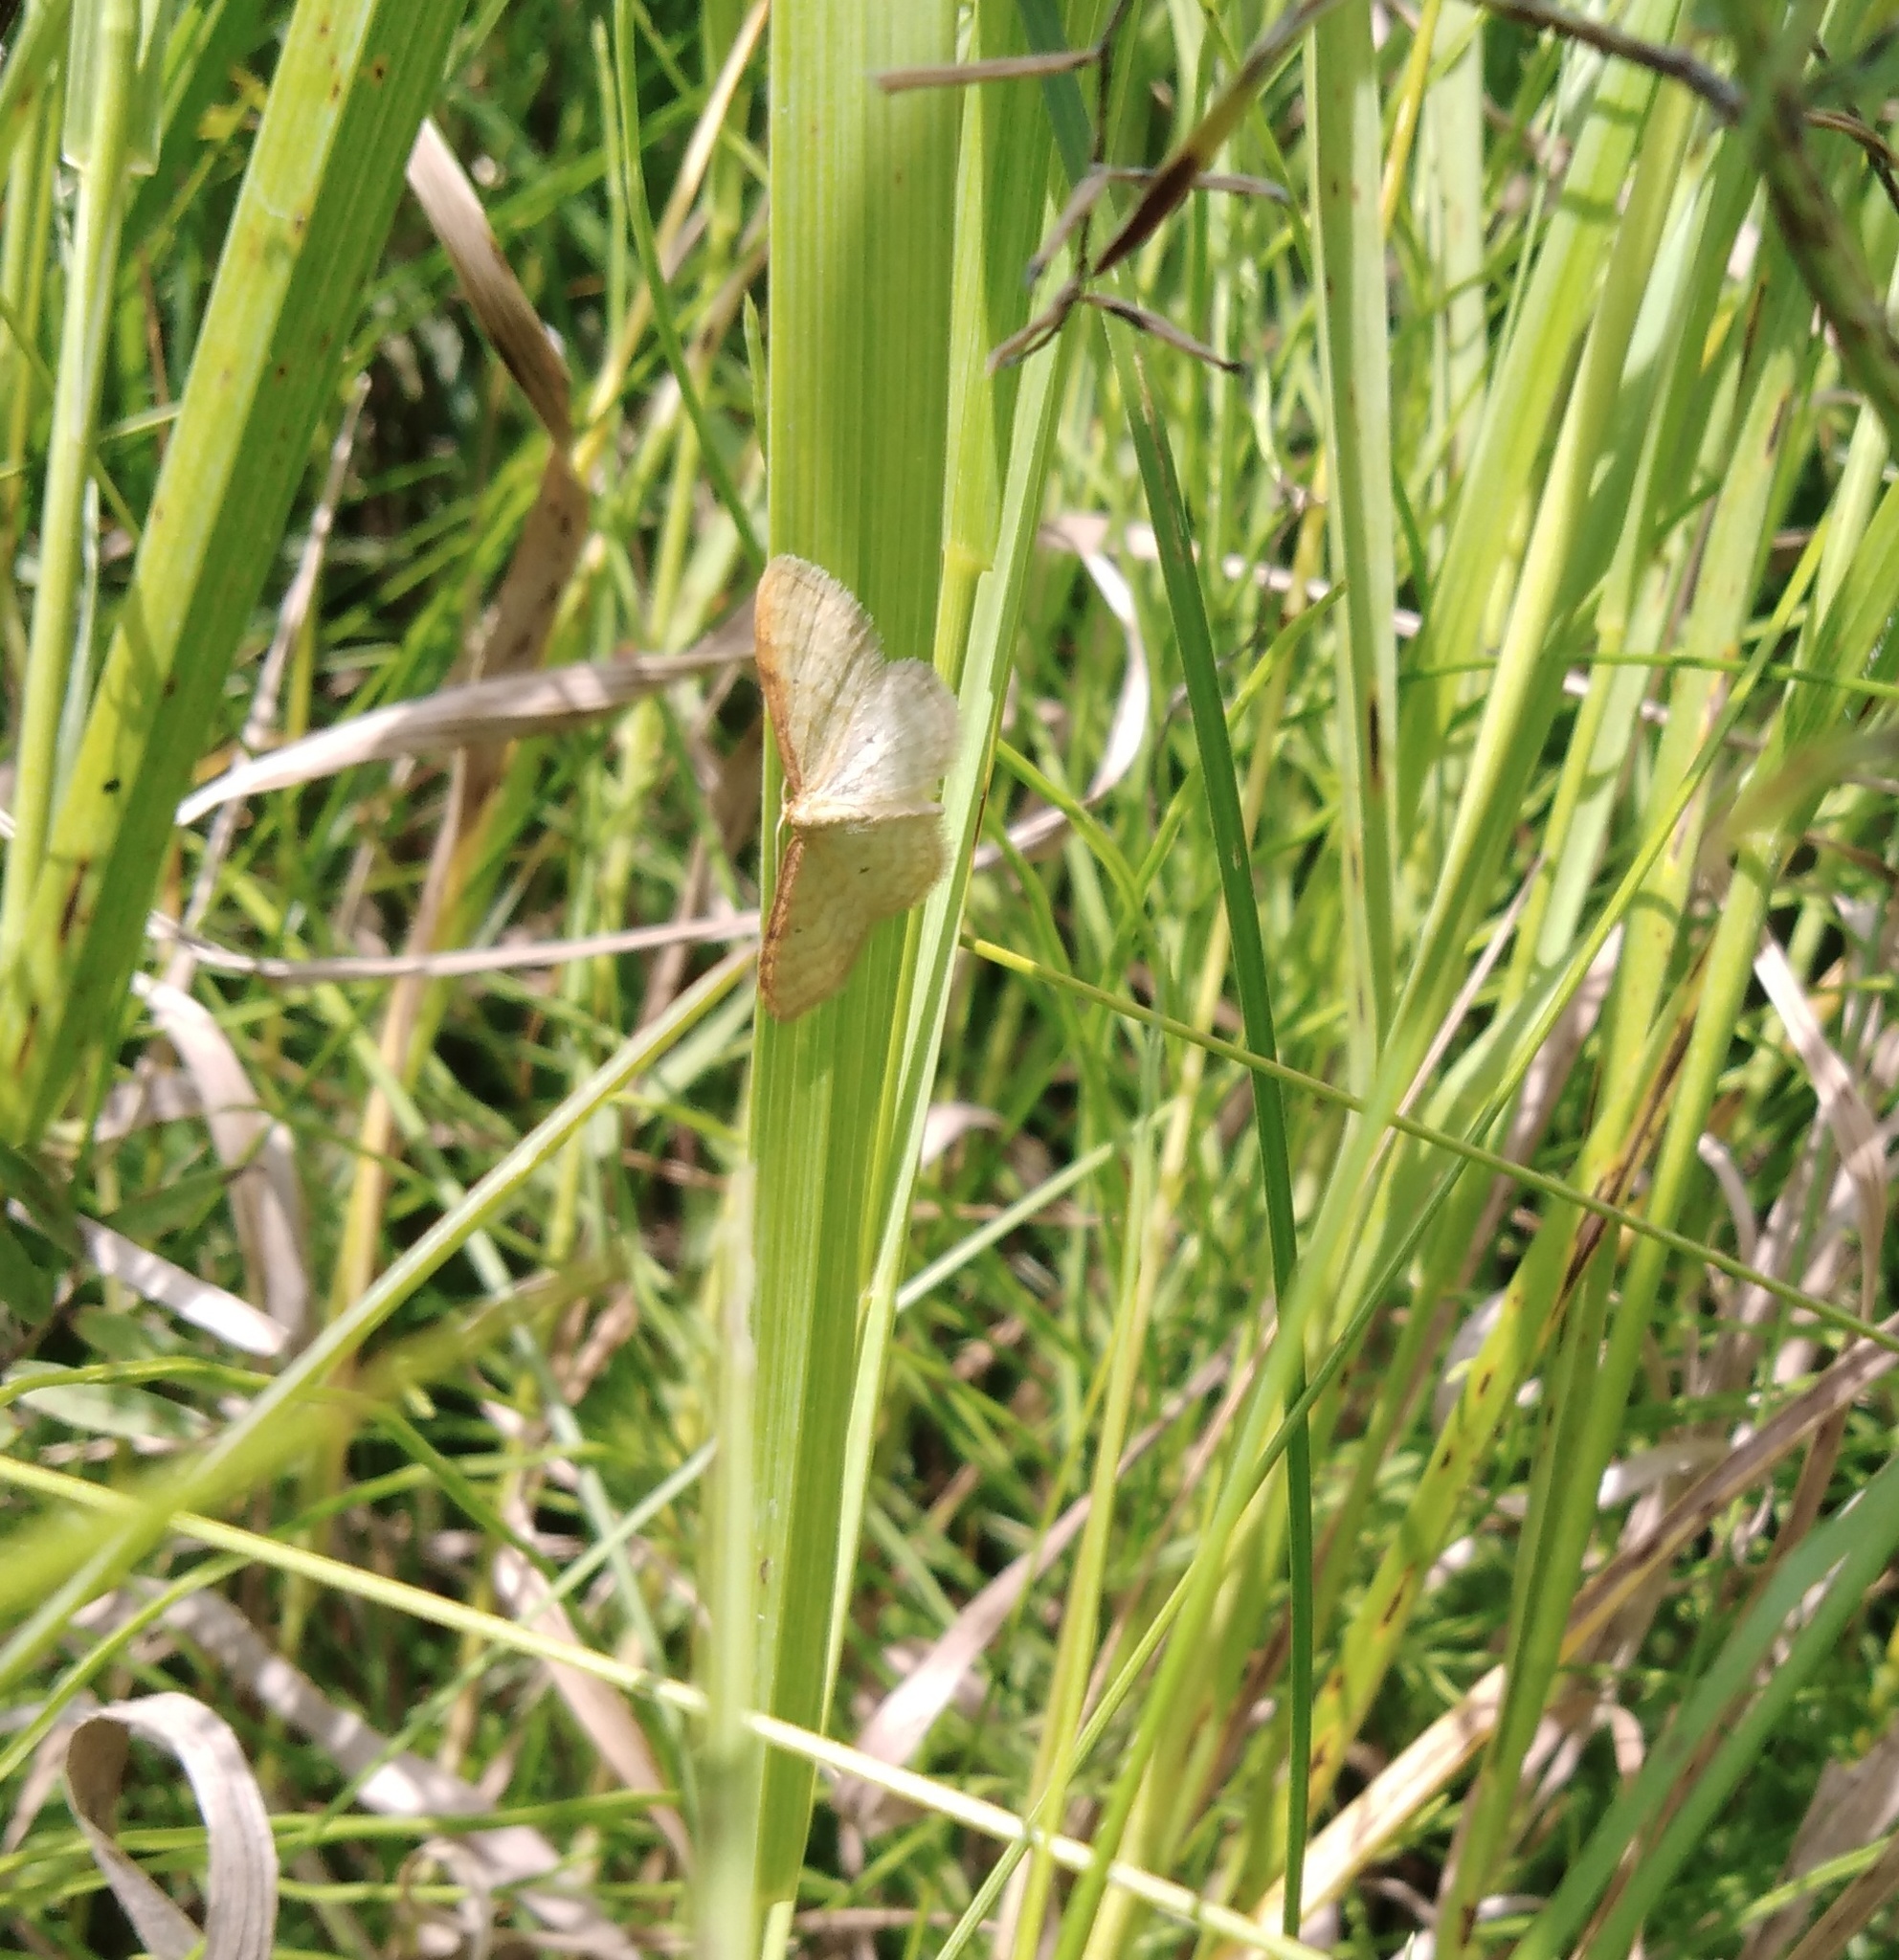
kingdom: Animalia
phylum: Arthropoda
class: Insecta
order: Lepidoptera
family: Geometridae
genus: Idaea
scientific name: Idaea humiliata
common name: Isle of wight wave
